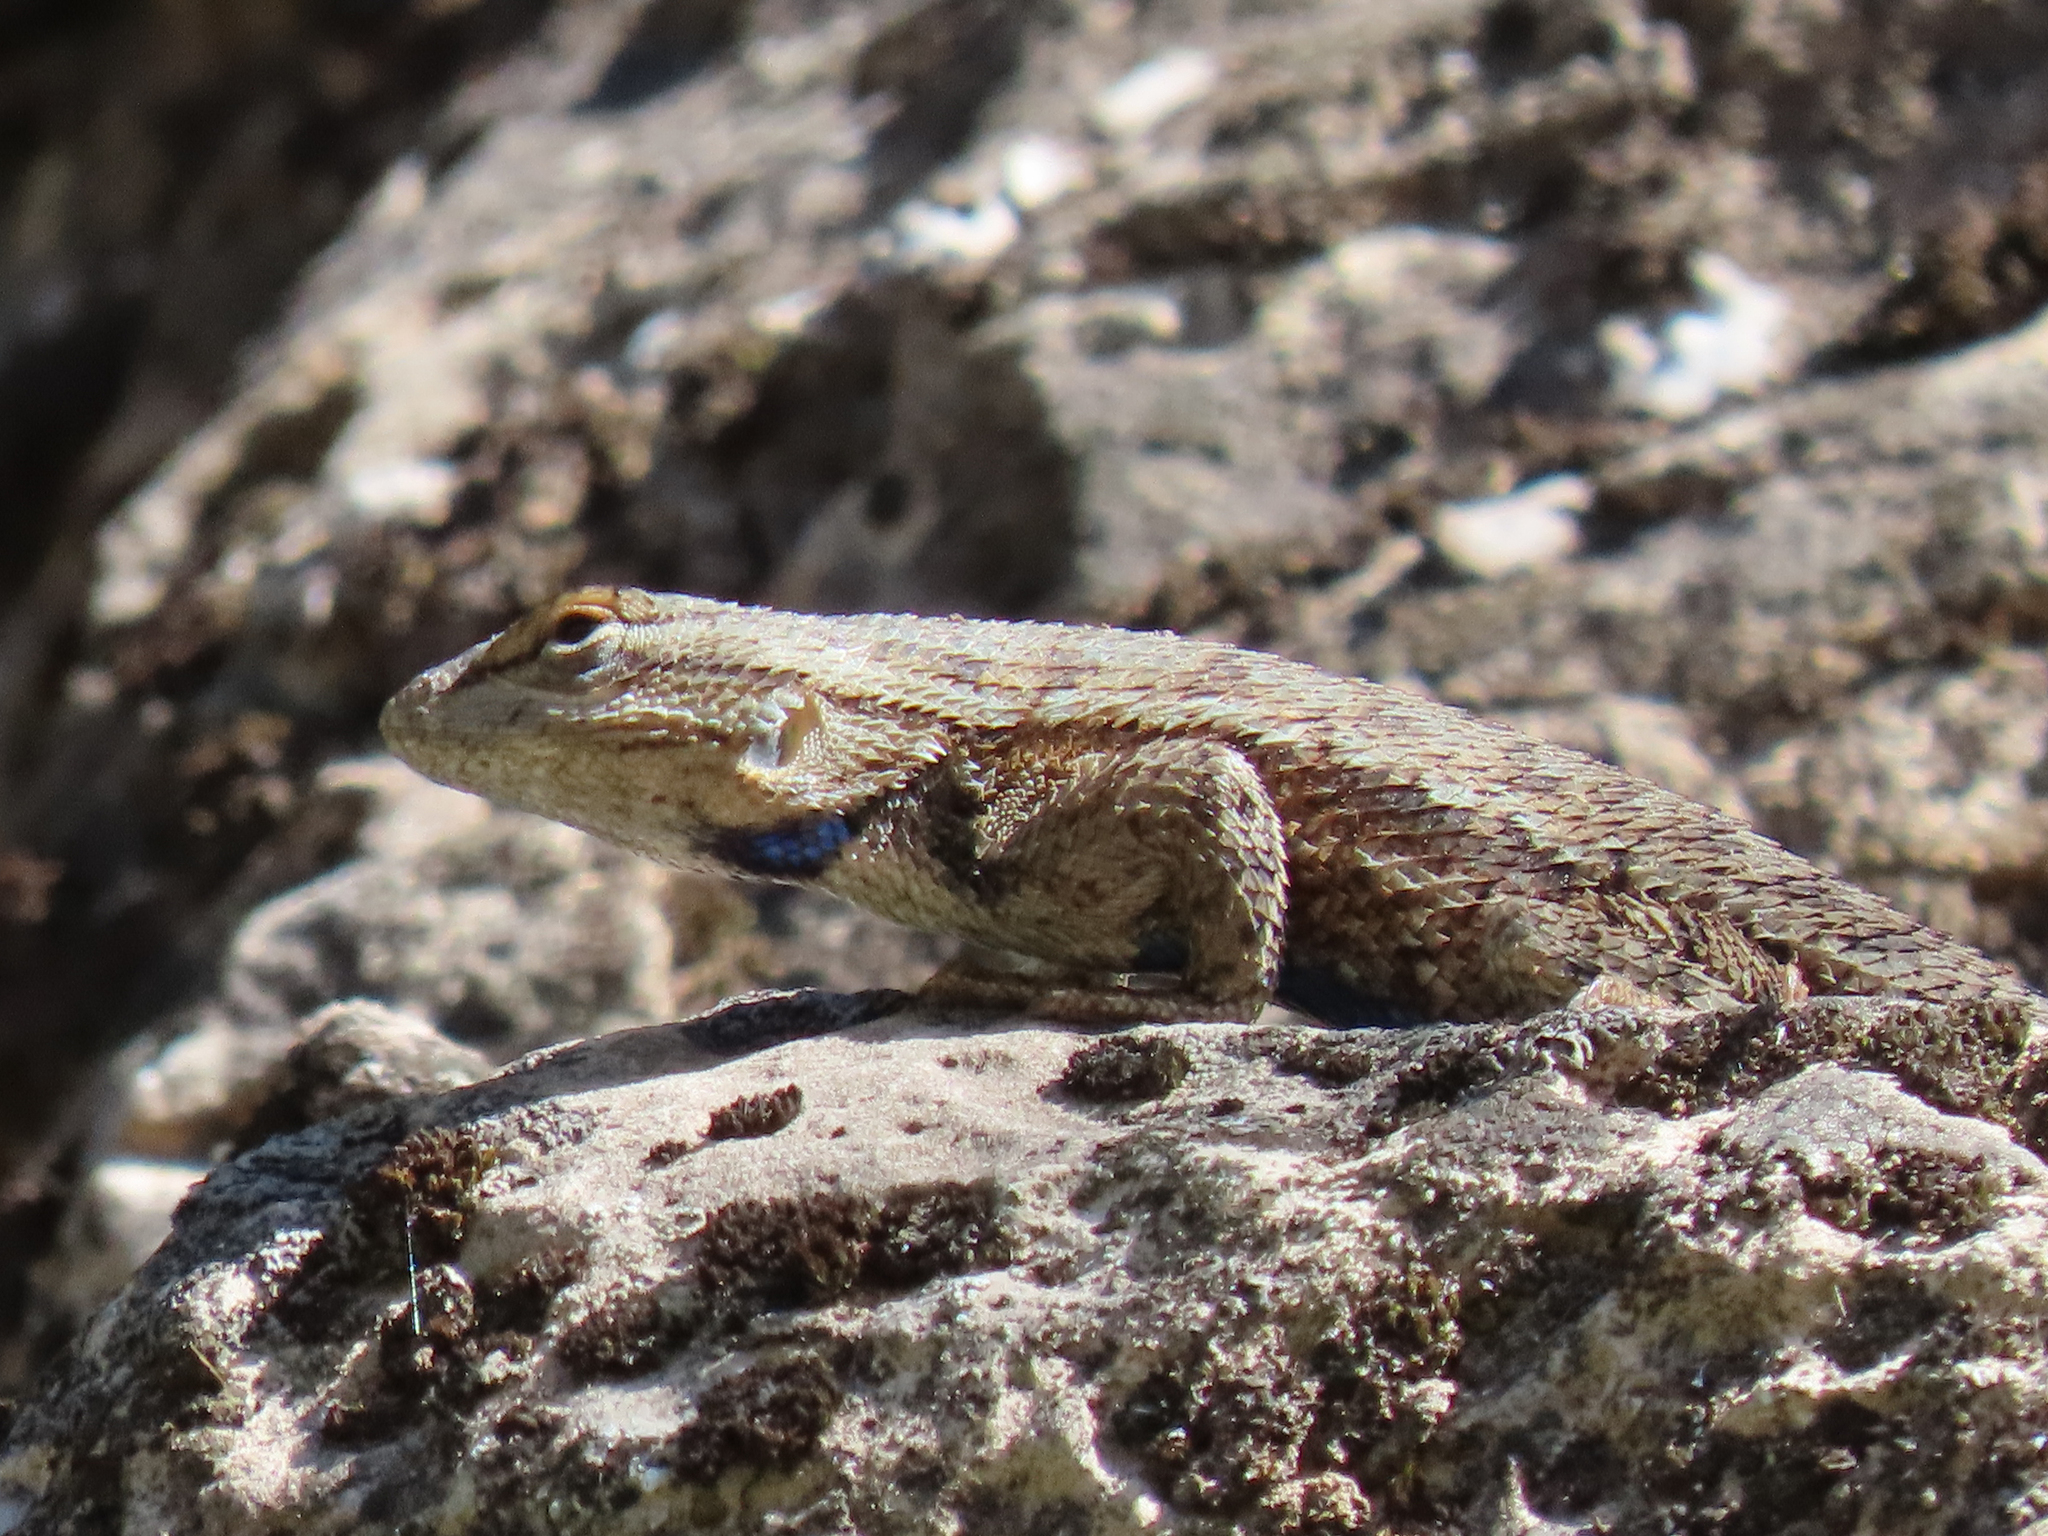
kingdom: Animalia
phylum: Chordata
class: Squamata
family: Phrynosomatidae
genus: Sceloporus
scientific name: Sceloporus tristichus
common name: Plateau fence lizard
